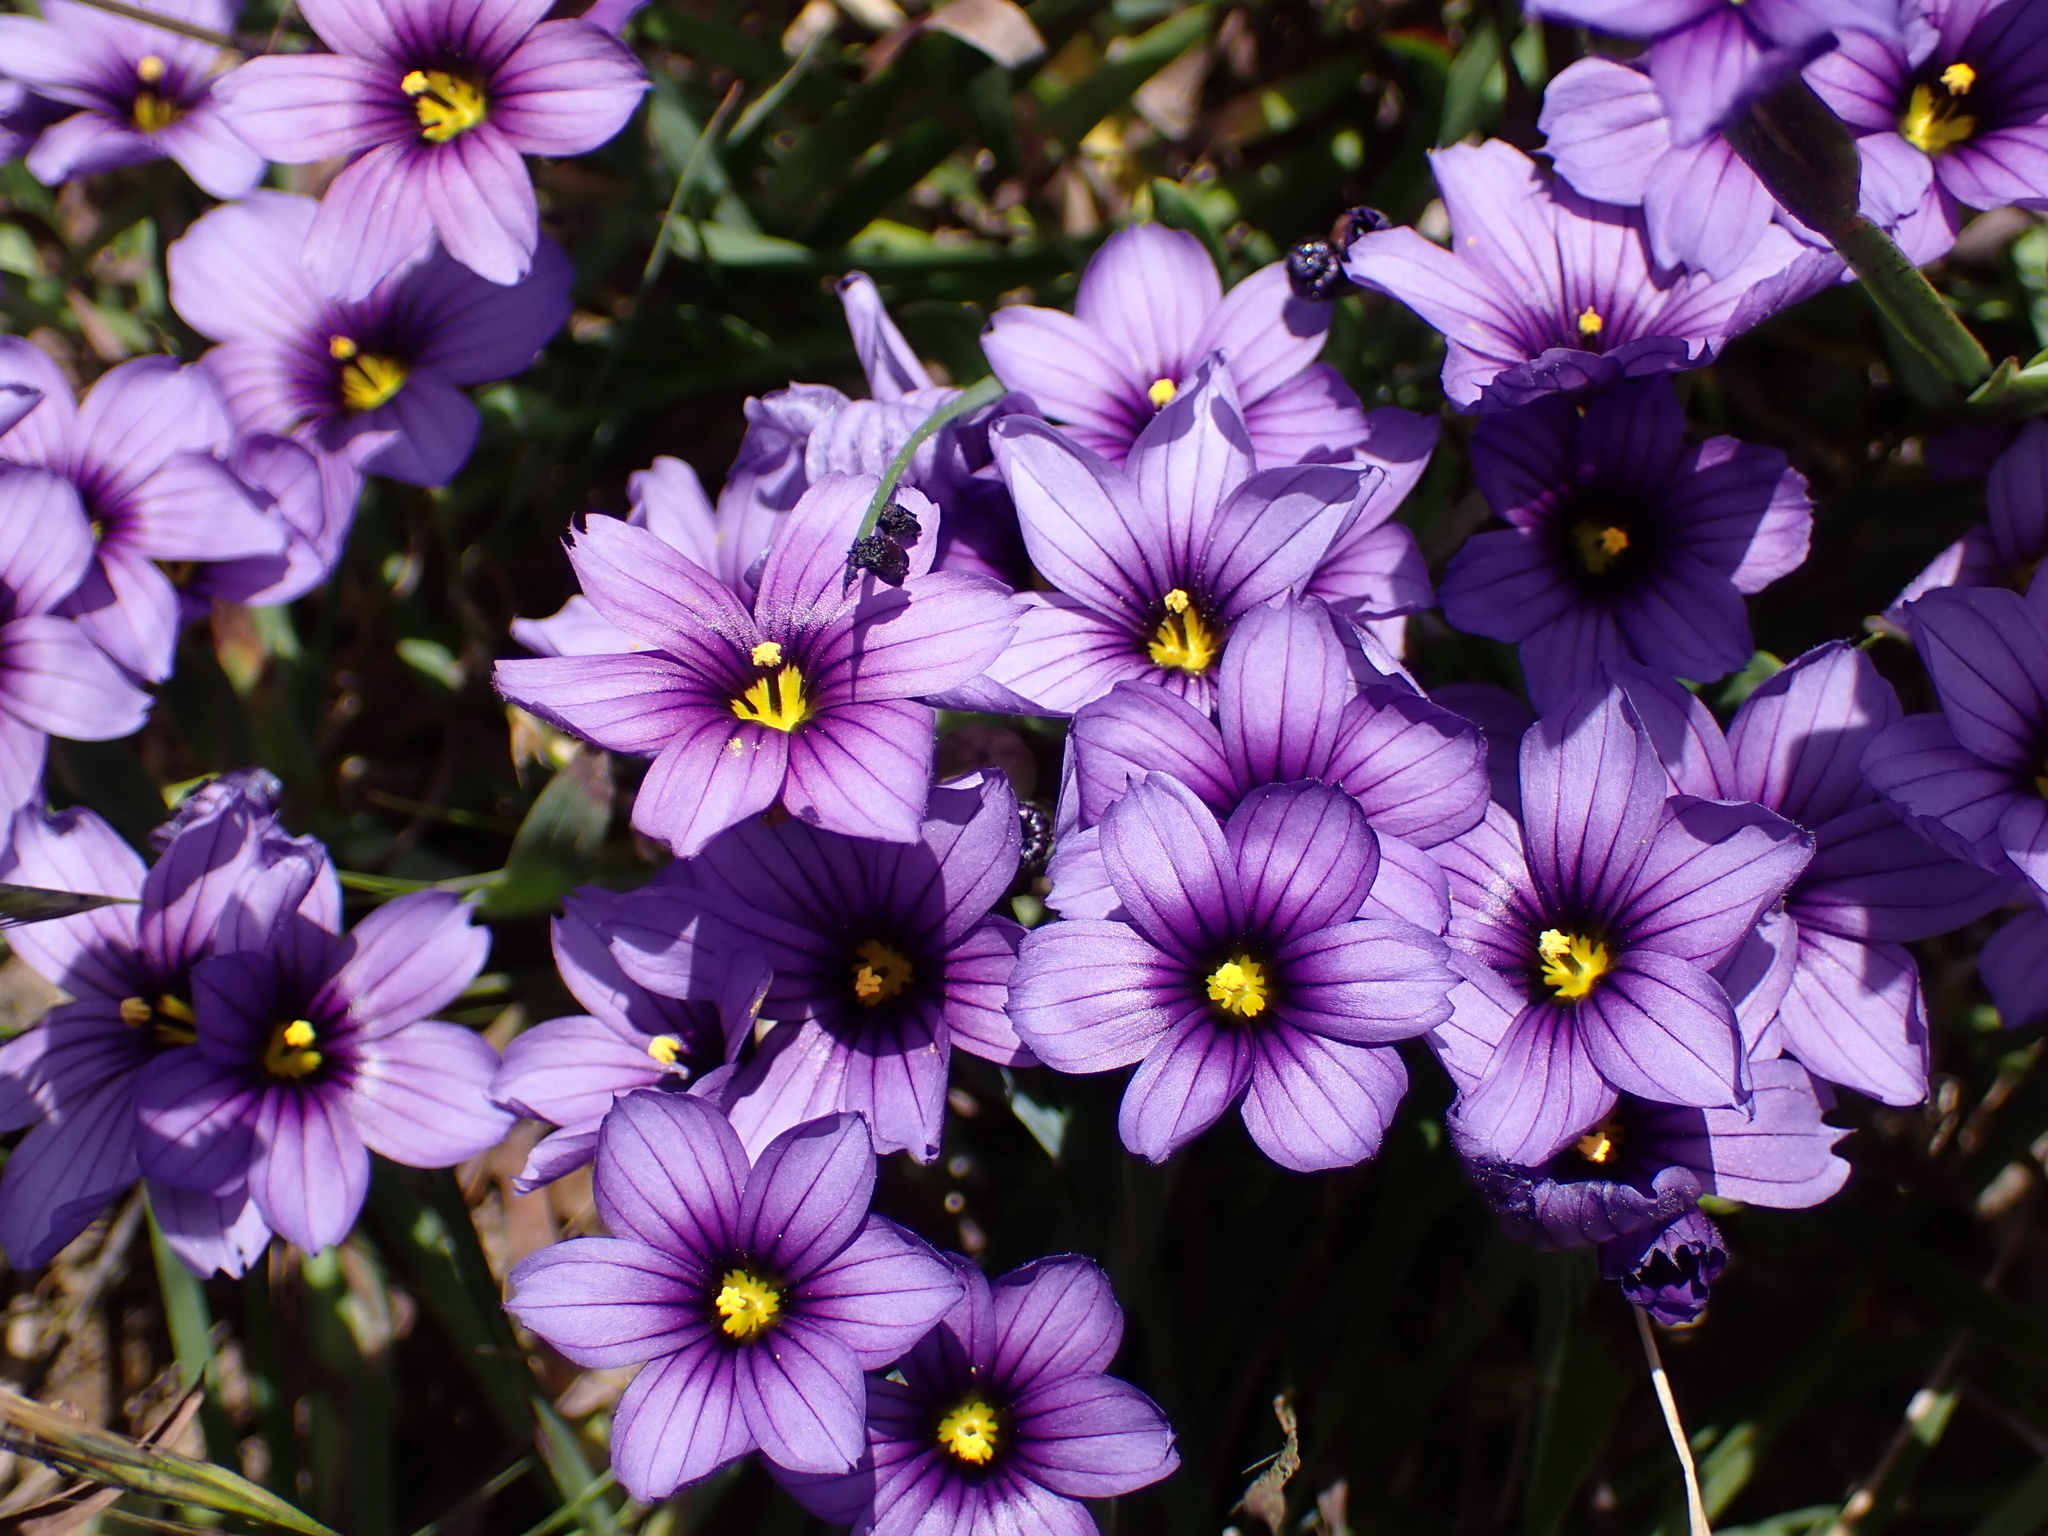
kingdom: Plantae
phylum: Tracheophyta
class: Liliopsida
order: Asparagales
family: Iridaceae
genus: Sisyrinchium
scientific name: Sisyrinchium bellum
